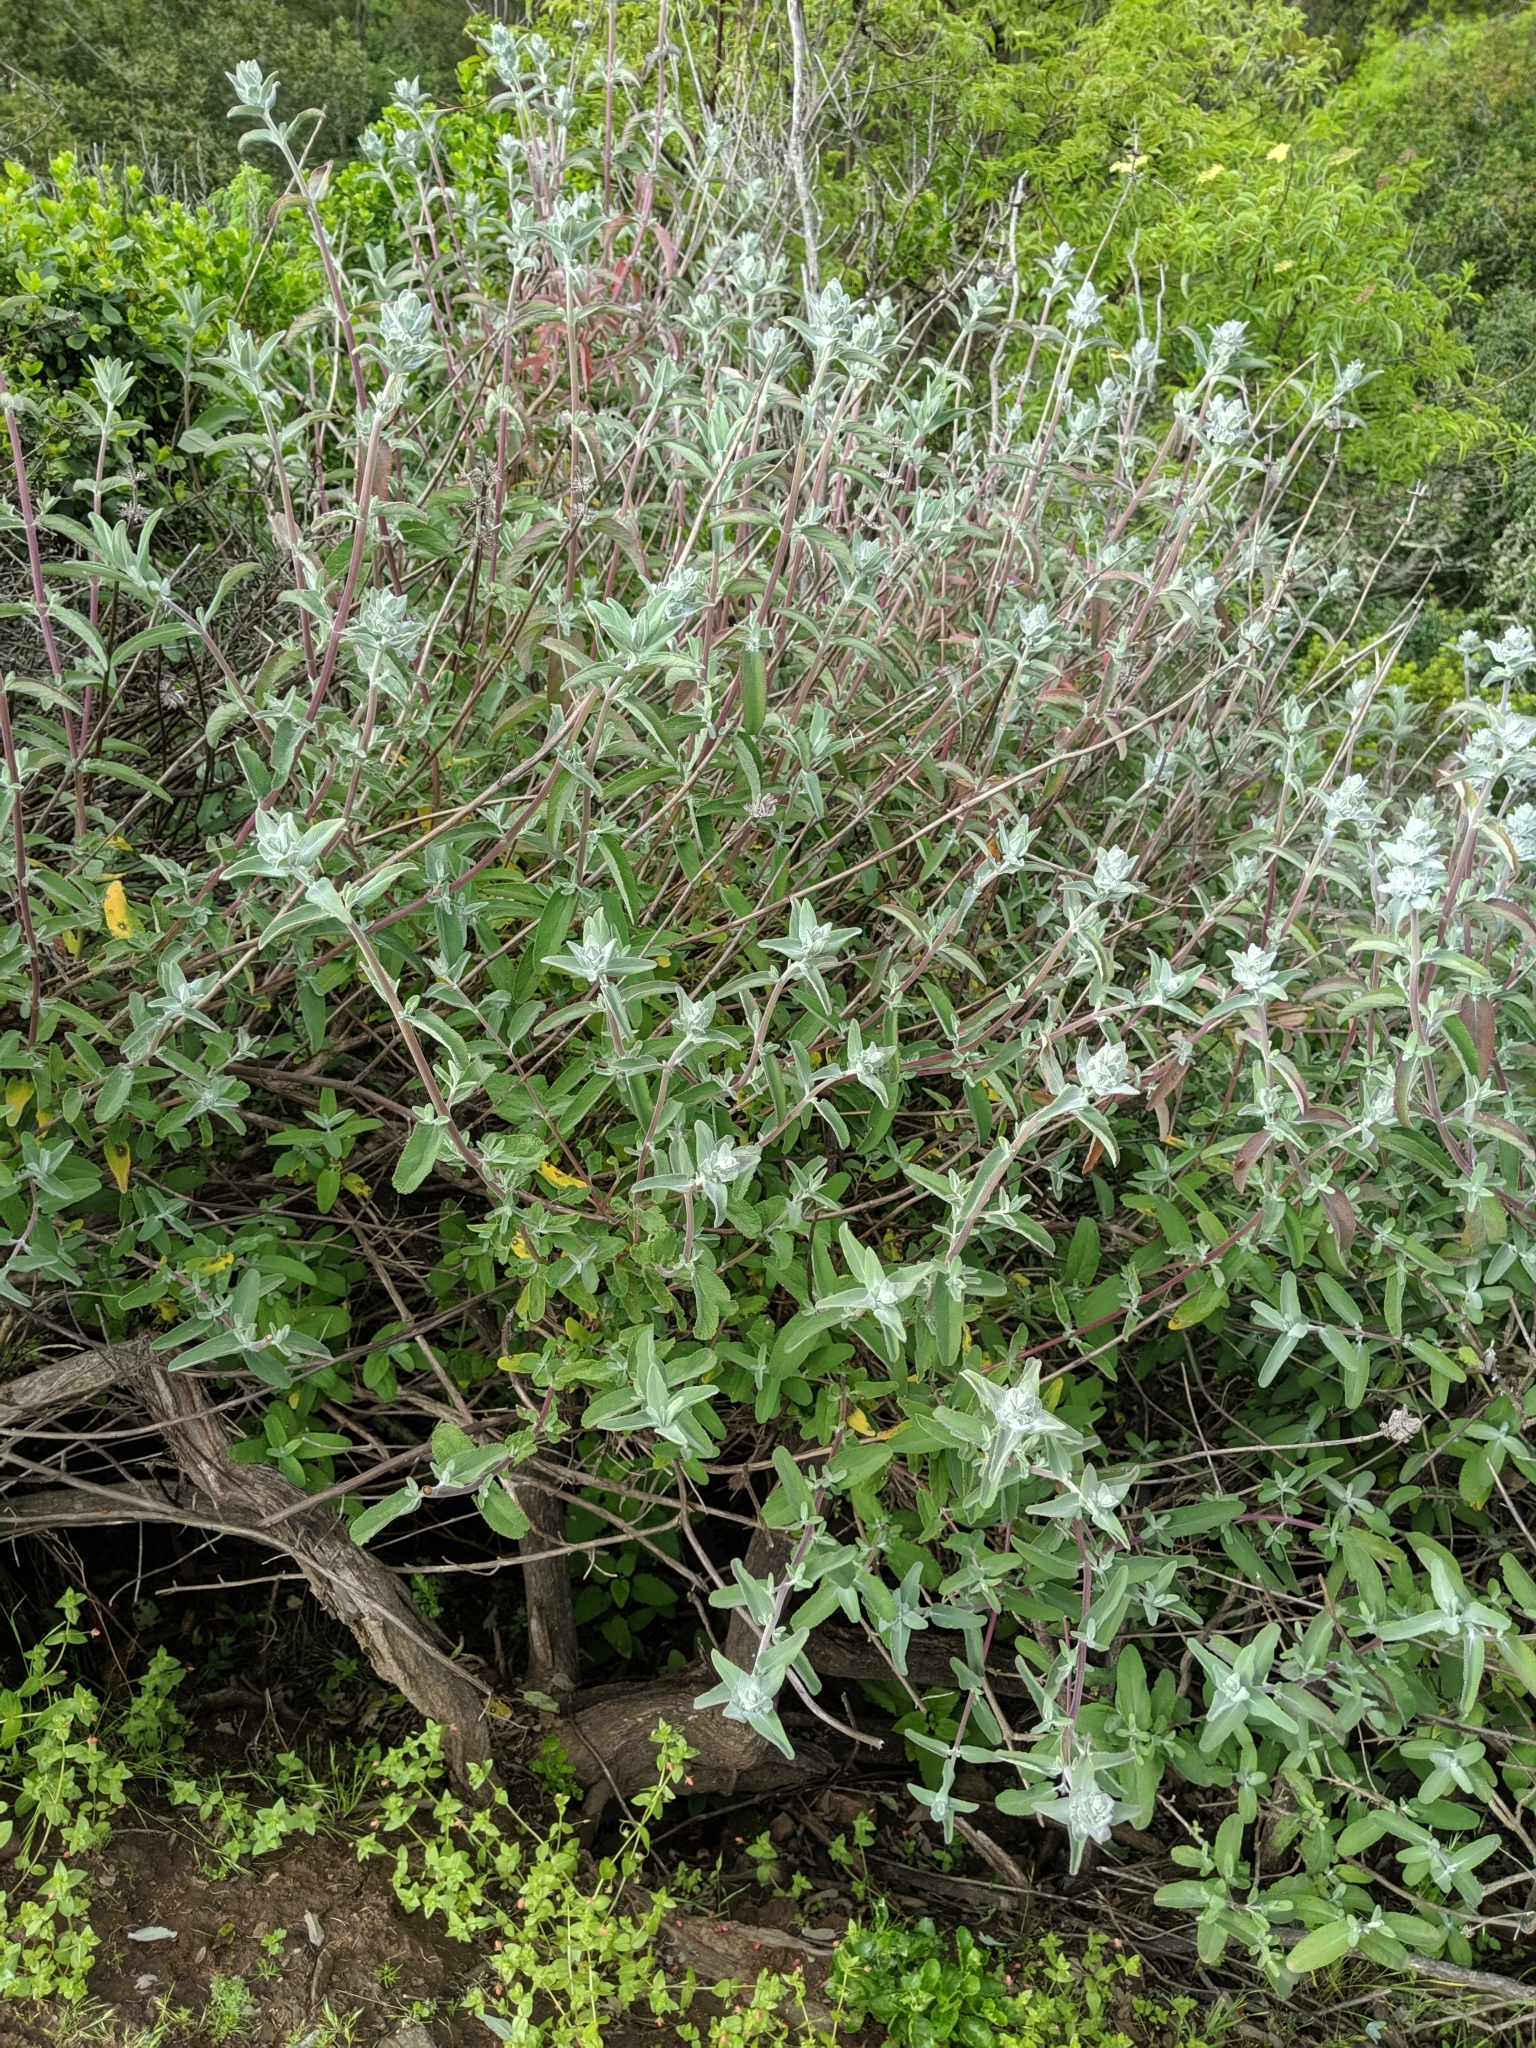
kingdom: Plantae
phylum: Tracheophyta
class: Magnoliopsida
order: Lamiales
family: Lamiaceae
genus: Salvia
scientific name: Salvia leucophylla
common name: Purple sage
